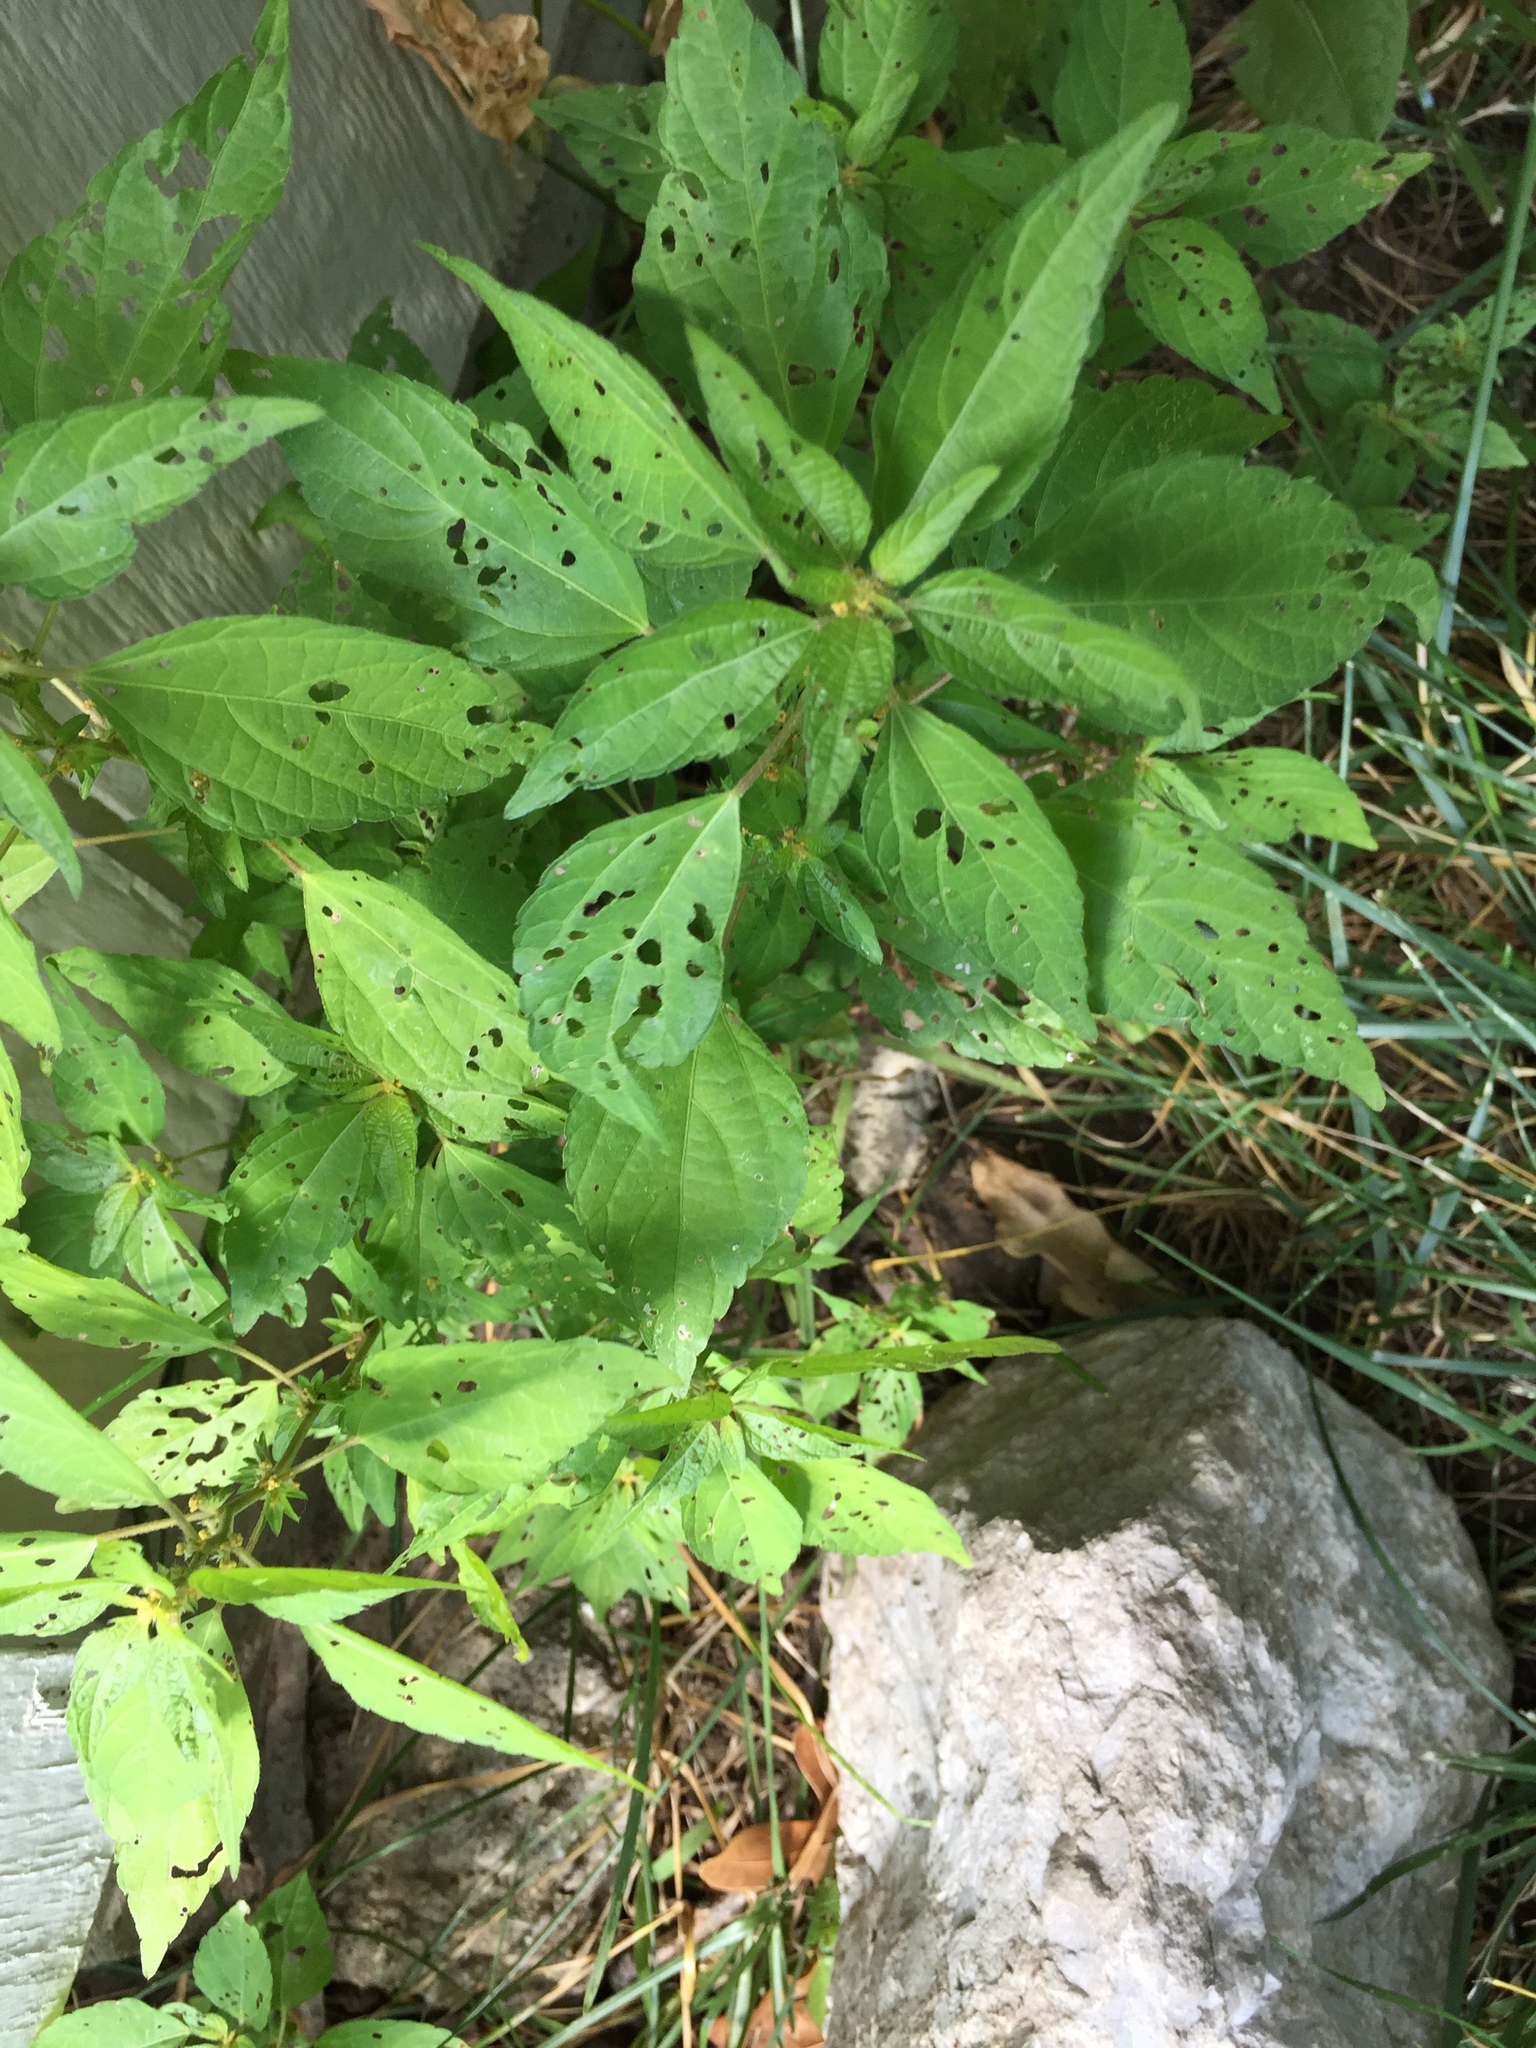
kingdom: Plantae
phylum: Tracheophyta
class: Magnoliopsida
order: Malpighiales
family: Euphorbiaceae
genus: Acalypha
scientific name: Acalypha rhomboidea
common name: Rhombic copperleaf
